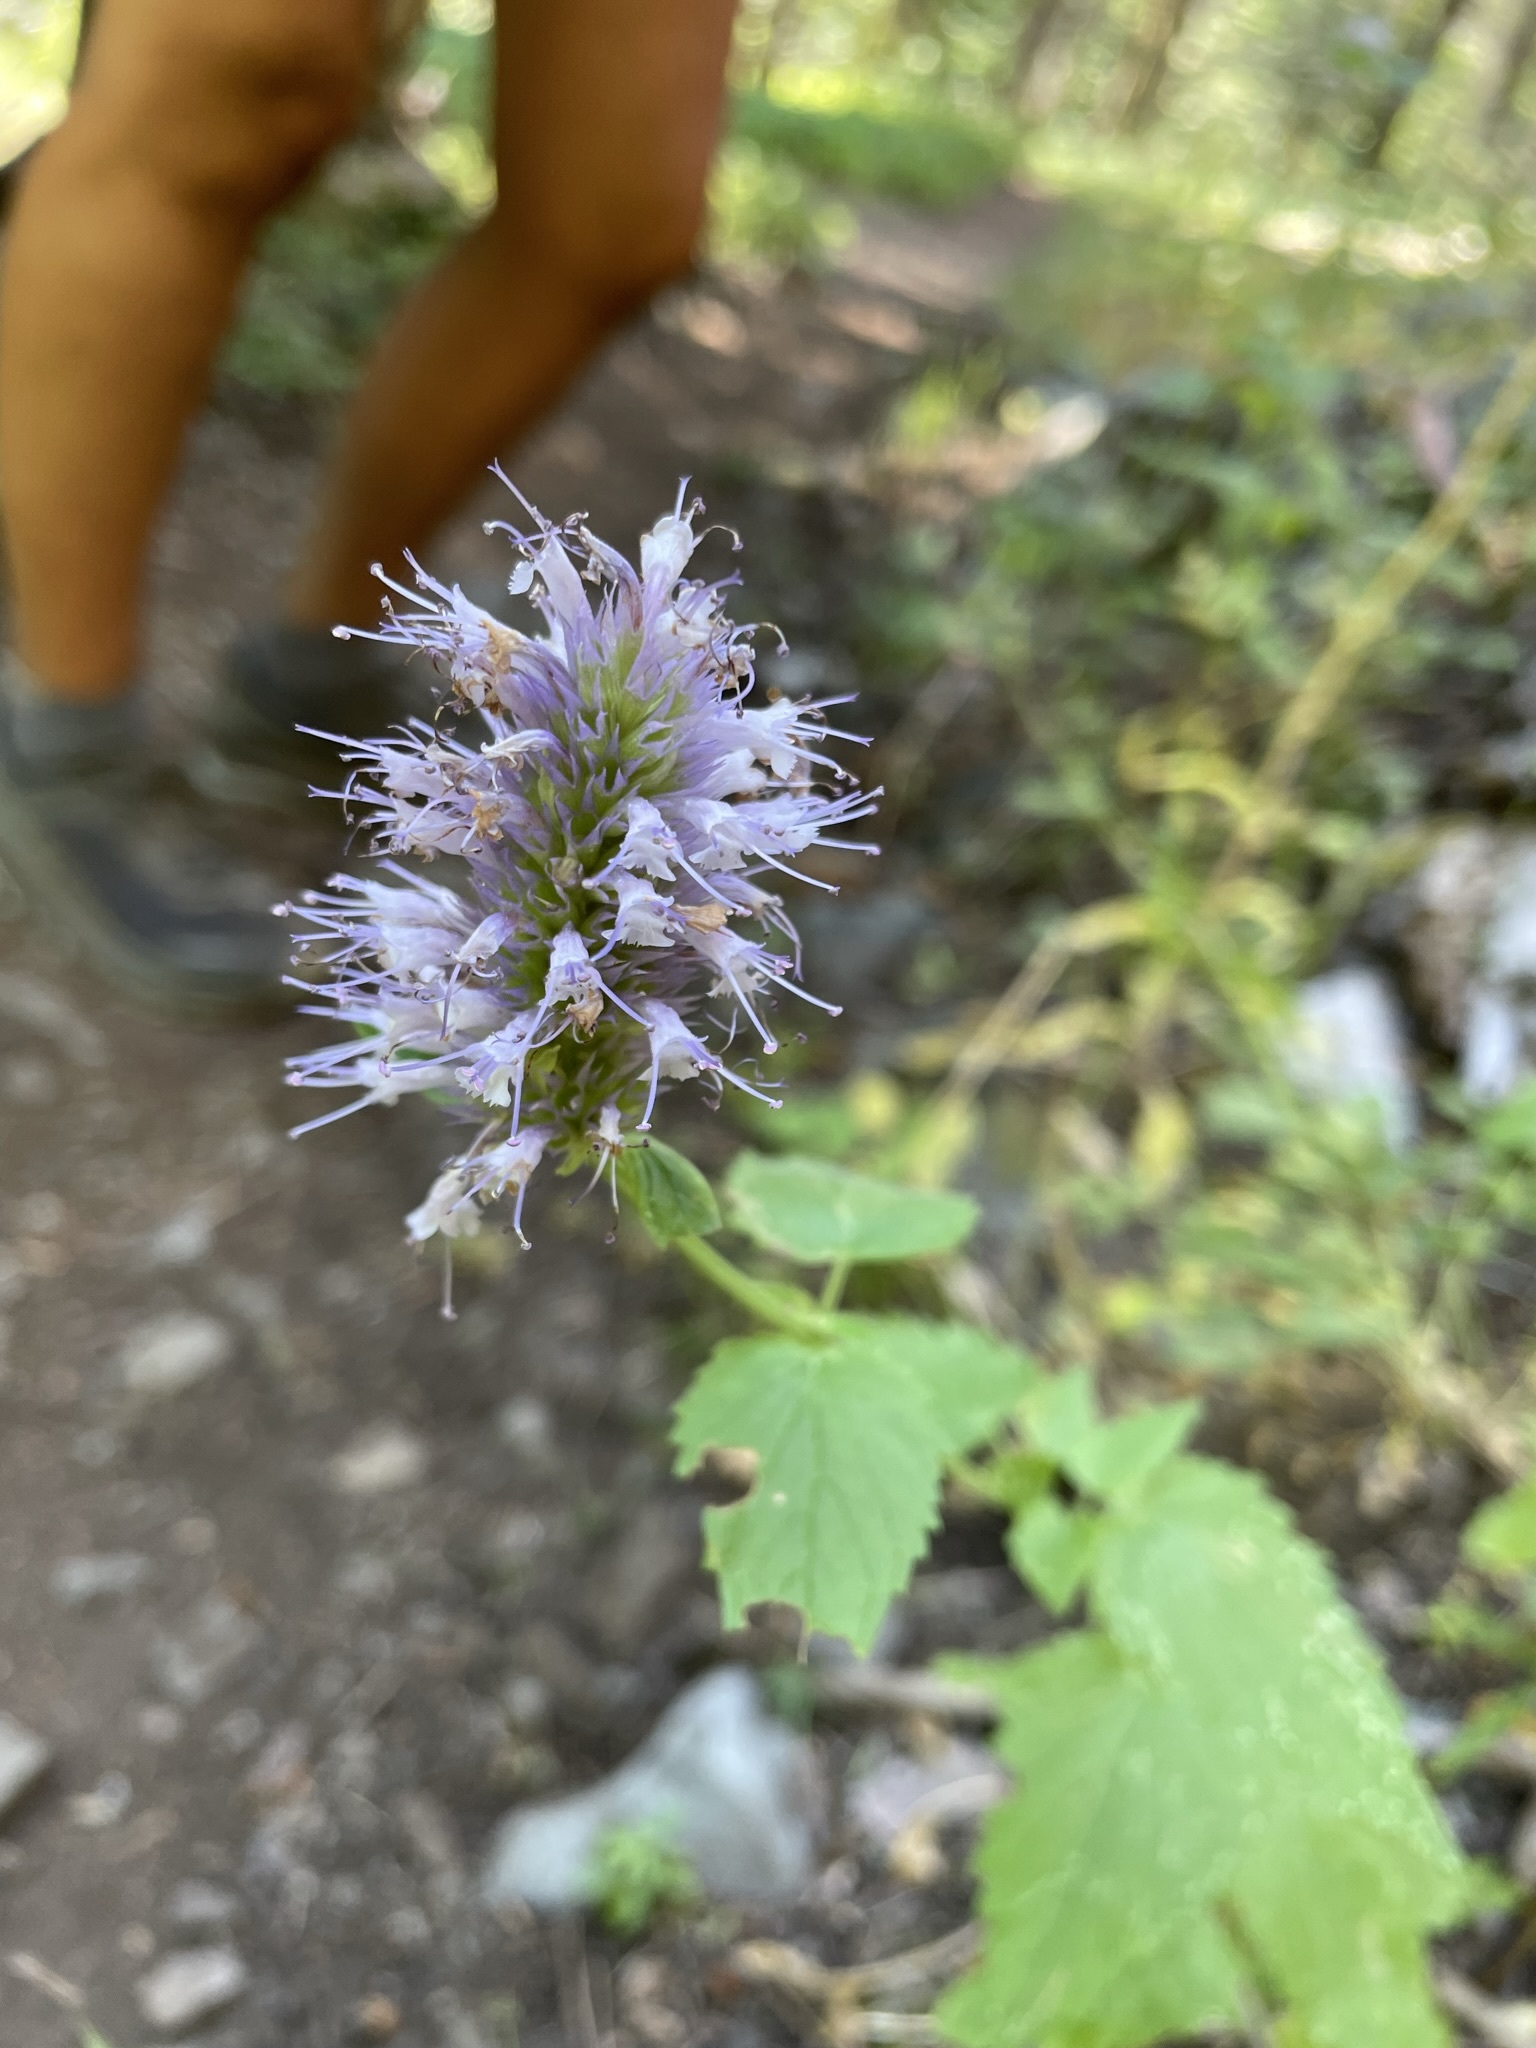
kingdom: Plantae
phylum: Tracheophyta
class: Magnoliopsida
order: Lamiales
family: Lamiaceae
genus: Agastache
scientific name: Agastache urticifolia
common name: Horsemint giant hyssop
